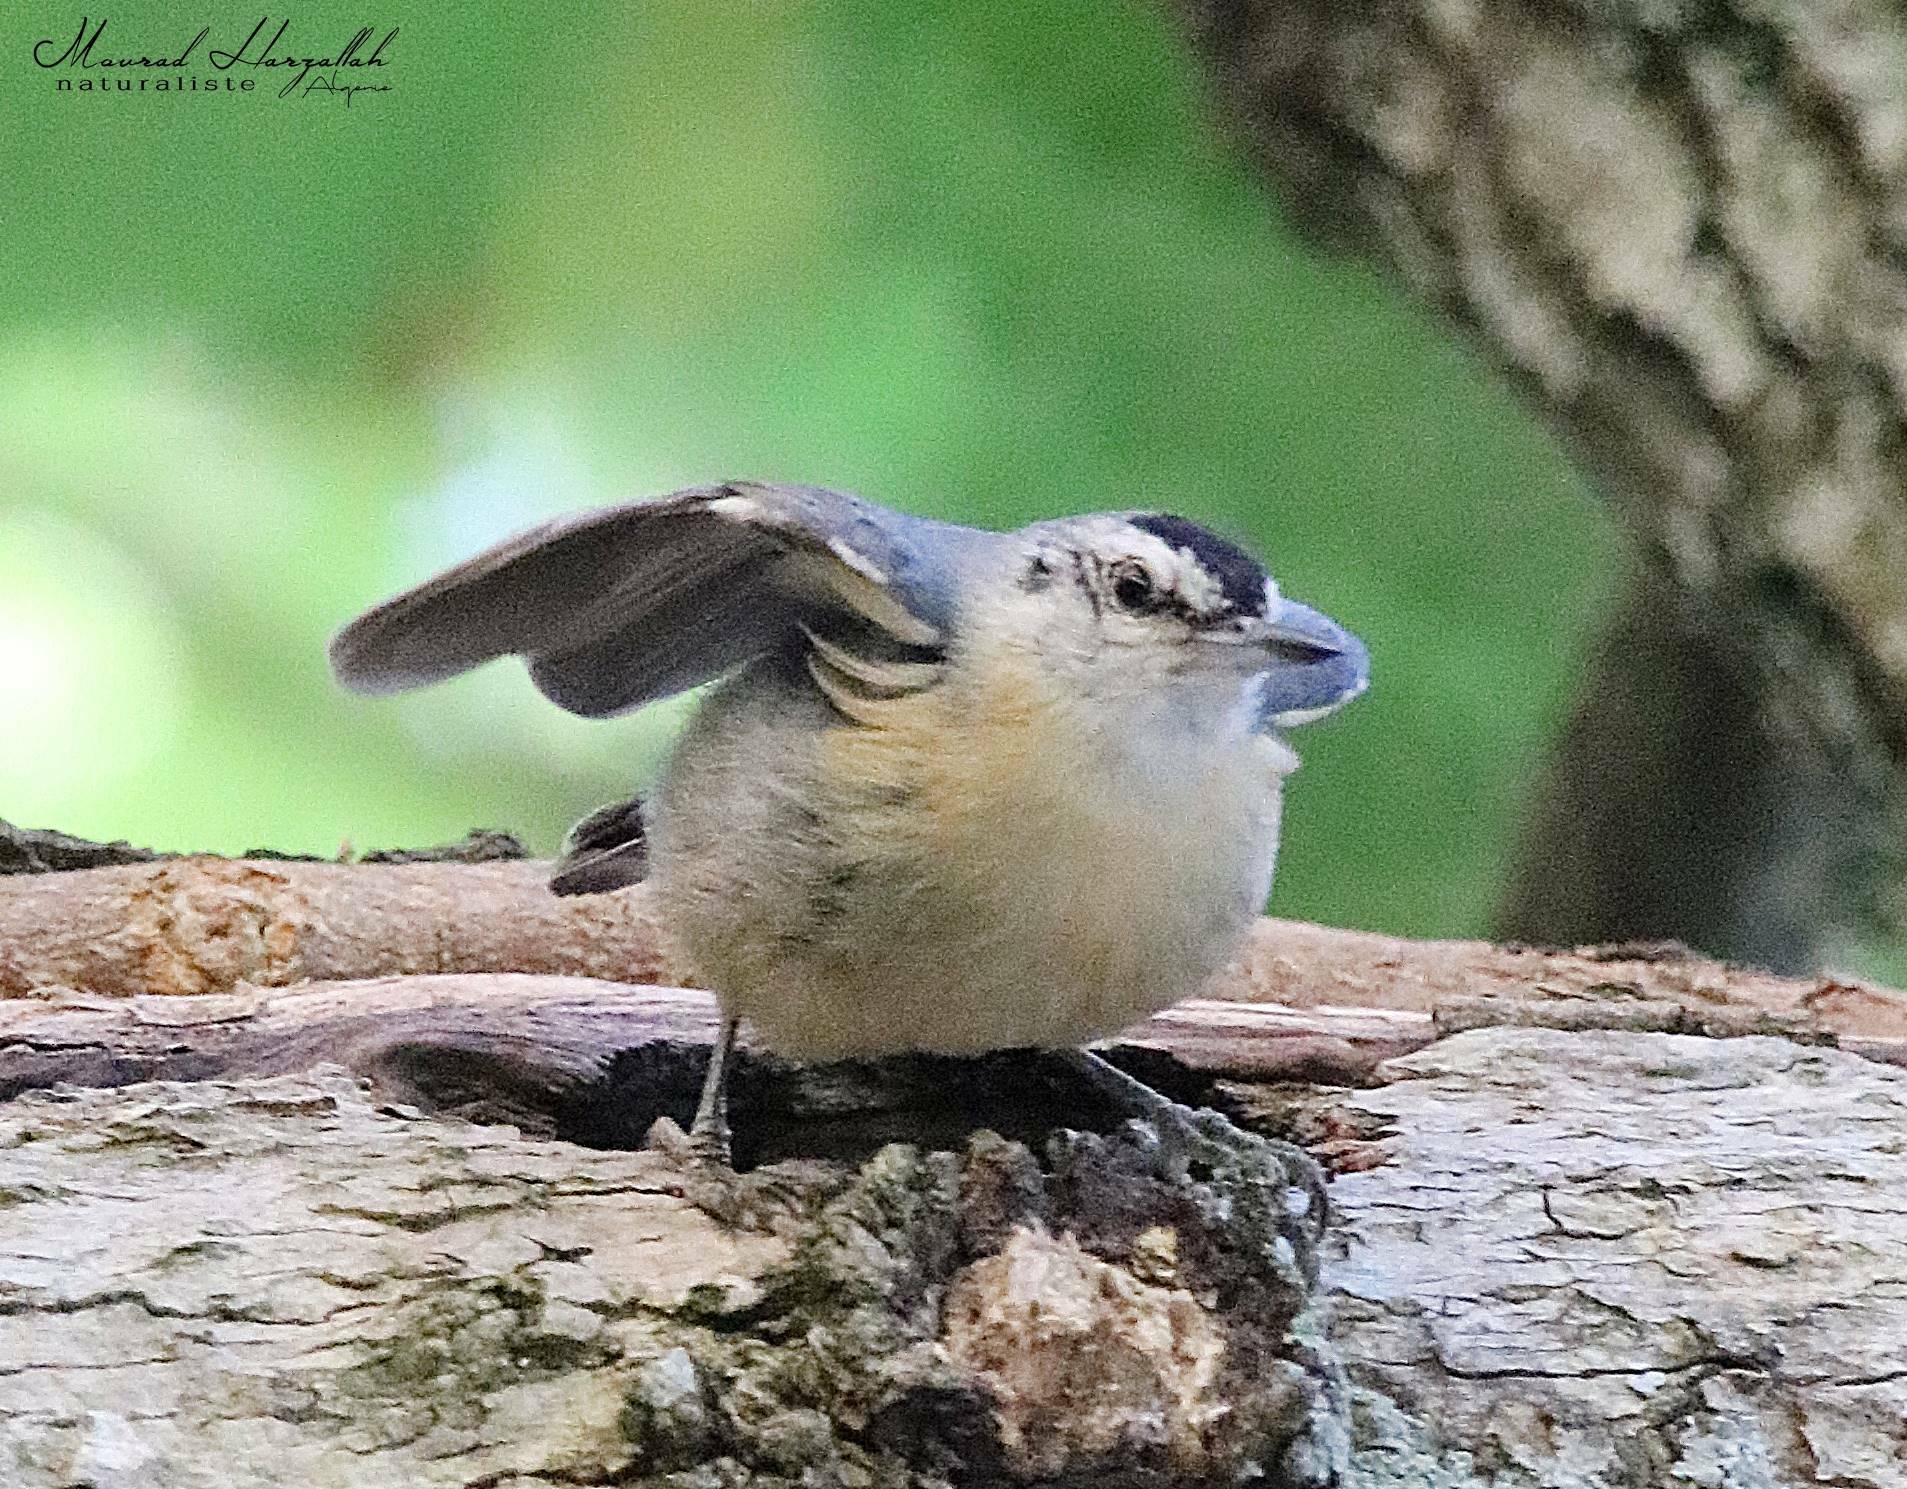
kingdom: Animalia
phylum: Chordata
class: Aves
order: Passeriformes
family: Sittidae
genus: Sitta
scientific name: Sitta ledanti
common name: Algerian nuthatch
